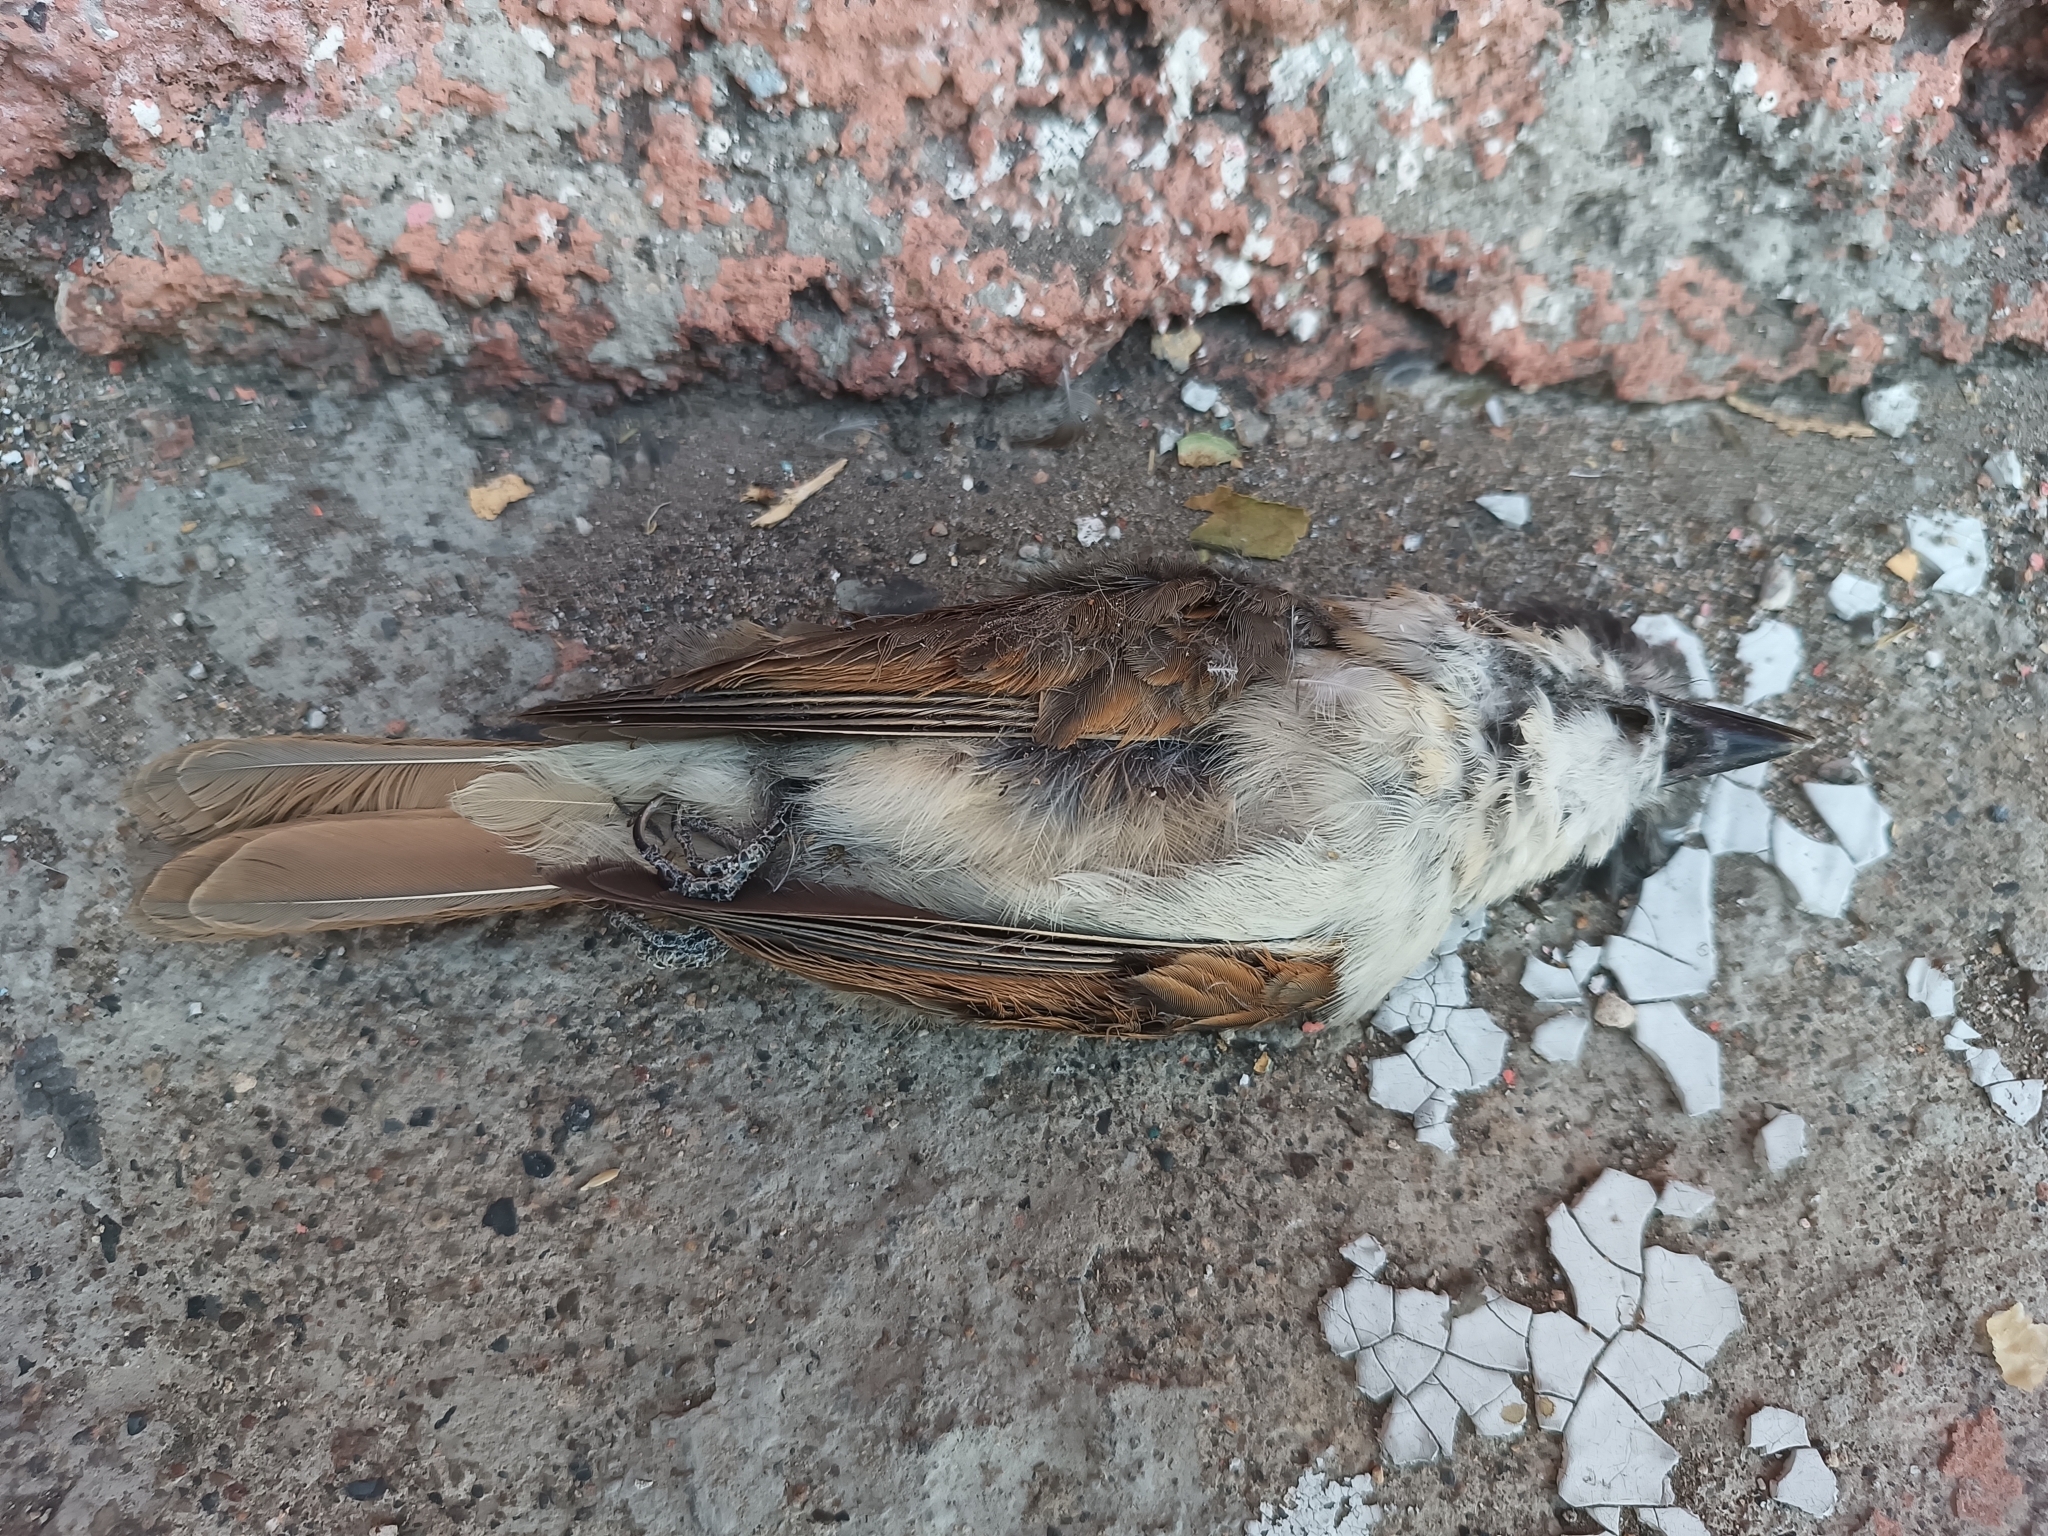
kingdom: Animalia
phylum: Chordata
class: Aves
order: Passeriformes
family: Cotingidae
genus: Pachyramphus
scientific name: Pachyramphus aglaiae
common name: Rose-throated becard
